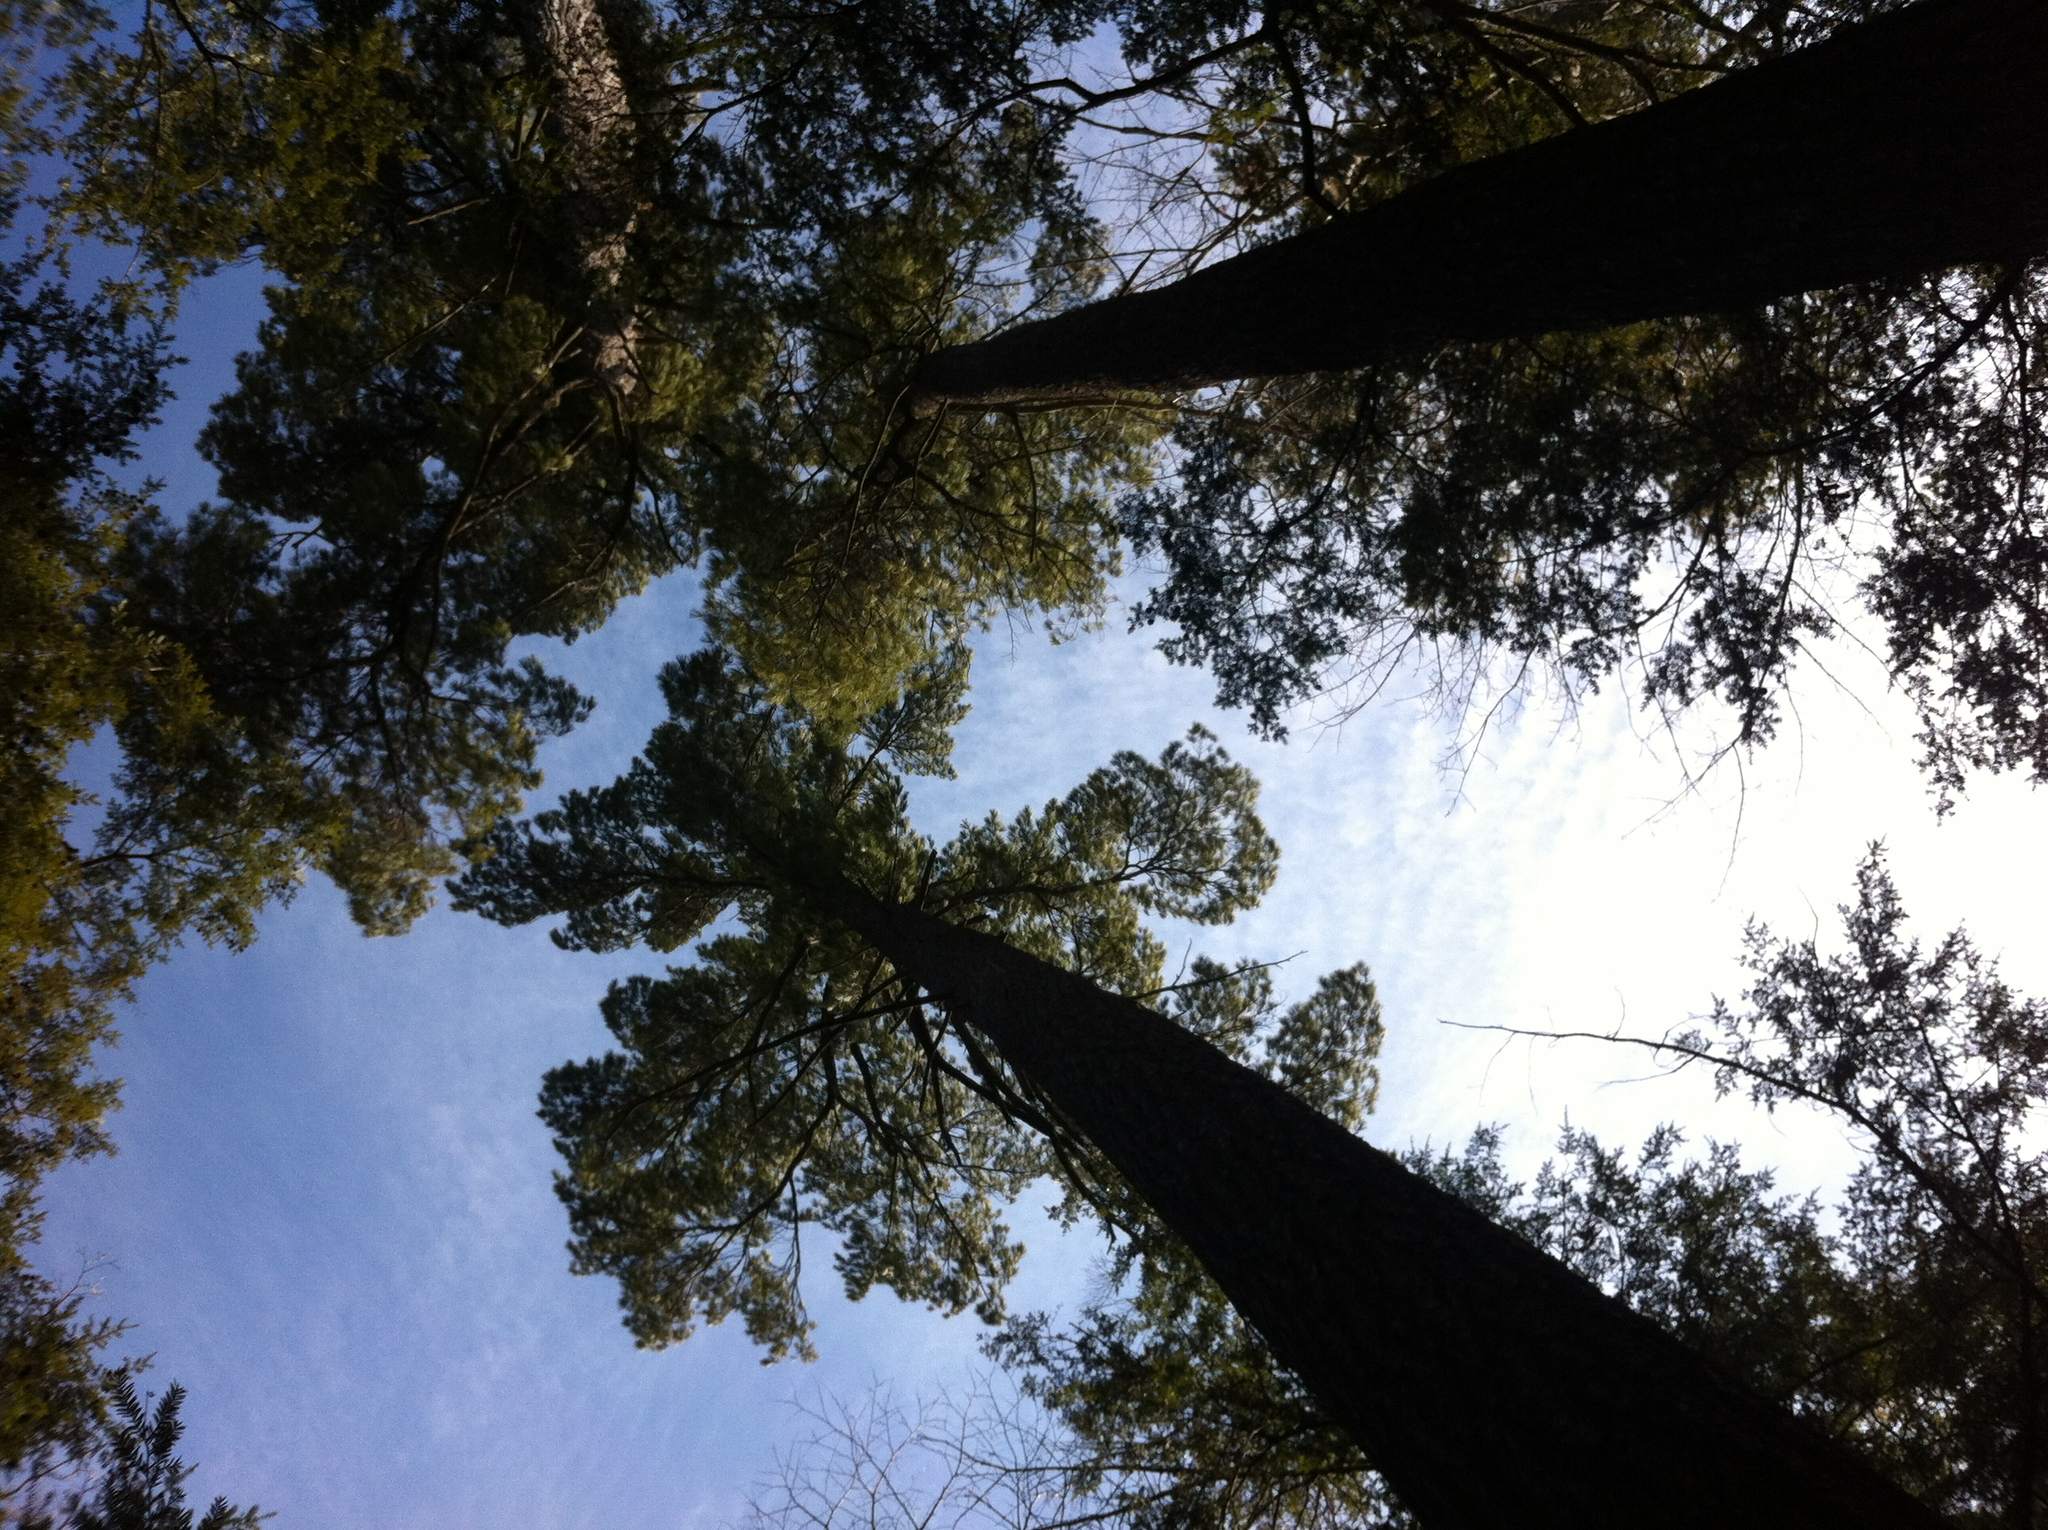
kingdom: Plantae
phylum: Tracheophyta
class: Pinopsida
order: Pinales
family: Pinaceae
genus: Pinus
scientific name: Pinus strobus
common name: Weymouth pine
